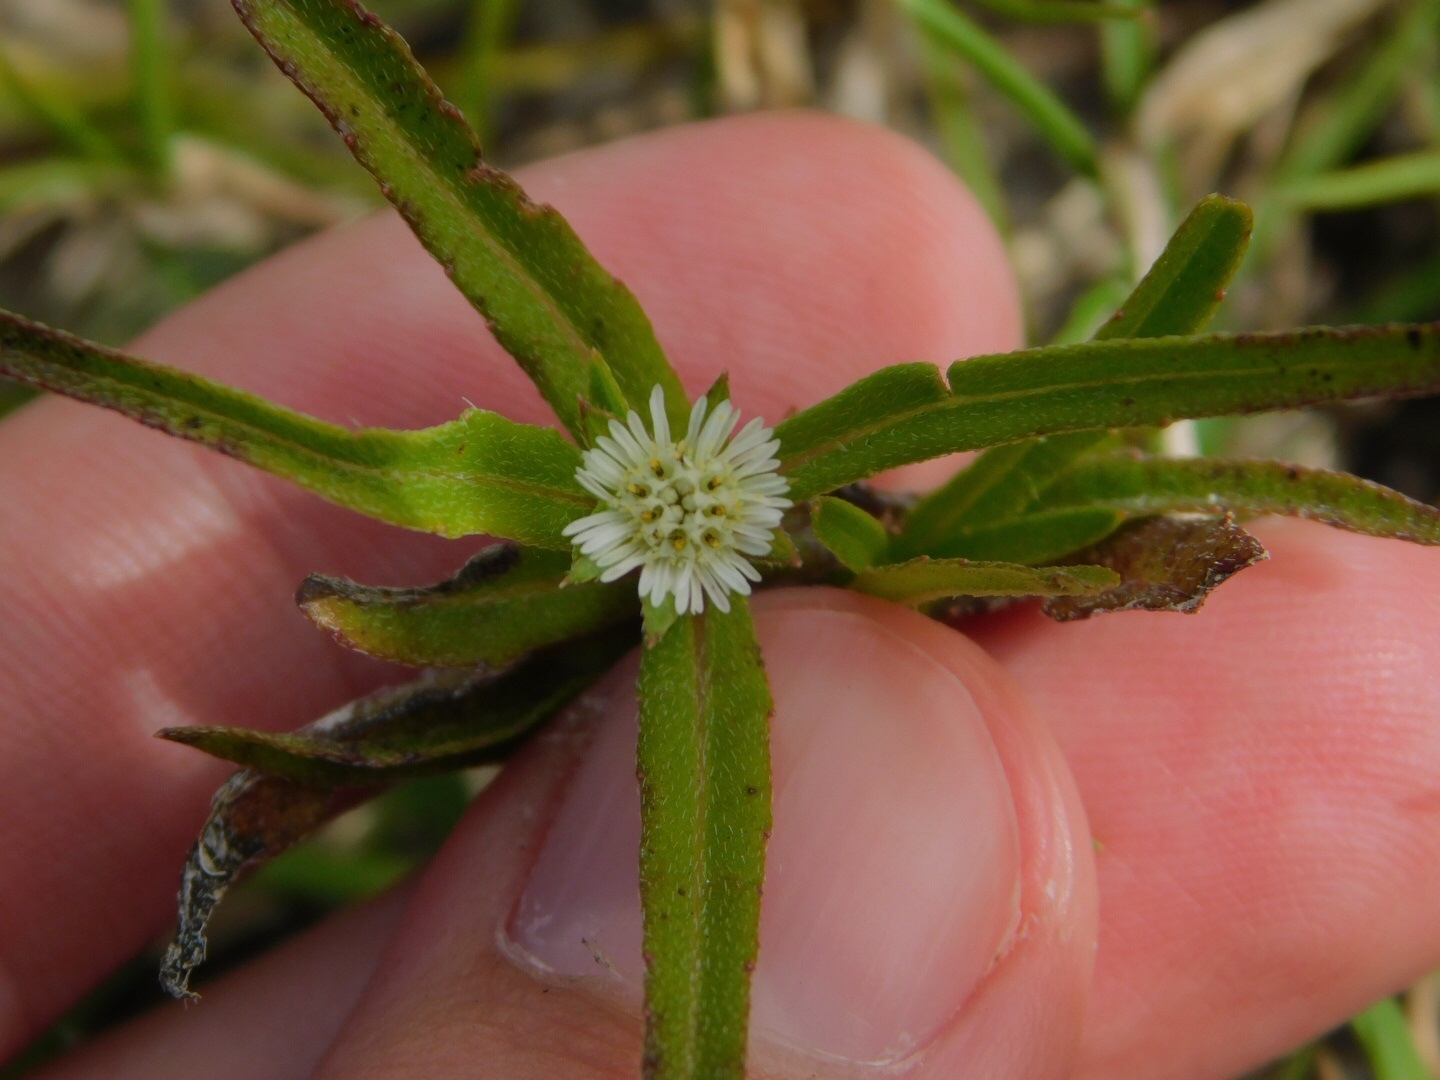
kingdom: Plantae
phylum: Tracheophyta
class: Magnoliopsida
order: Asterales
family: Asteraceae
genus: Eclipta
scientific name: Eclipta prostrata
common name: False daisy
